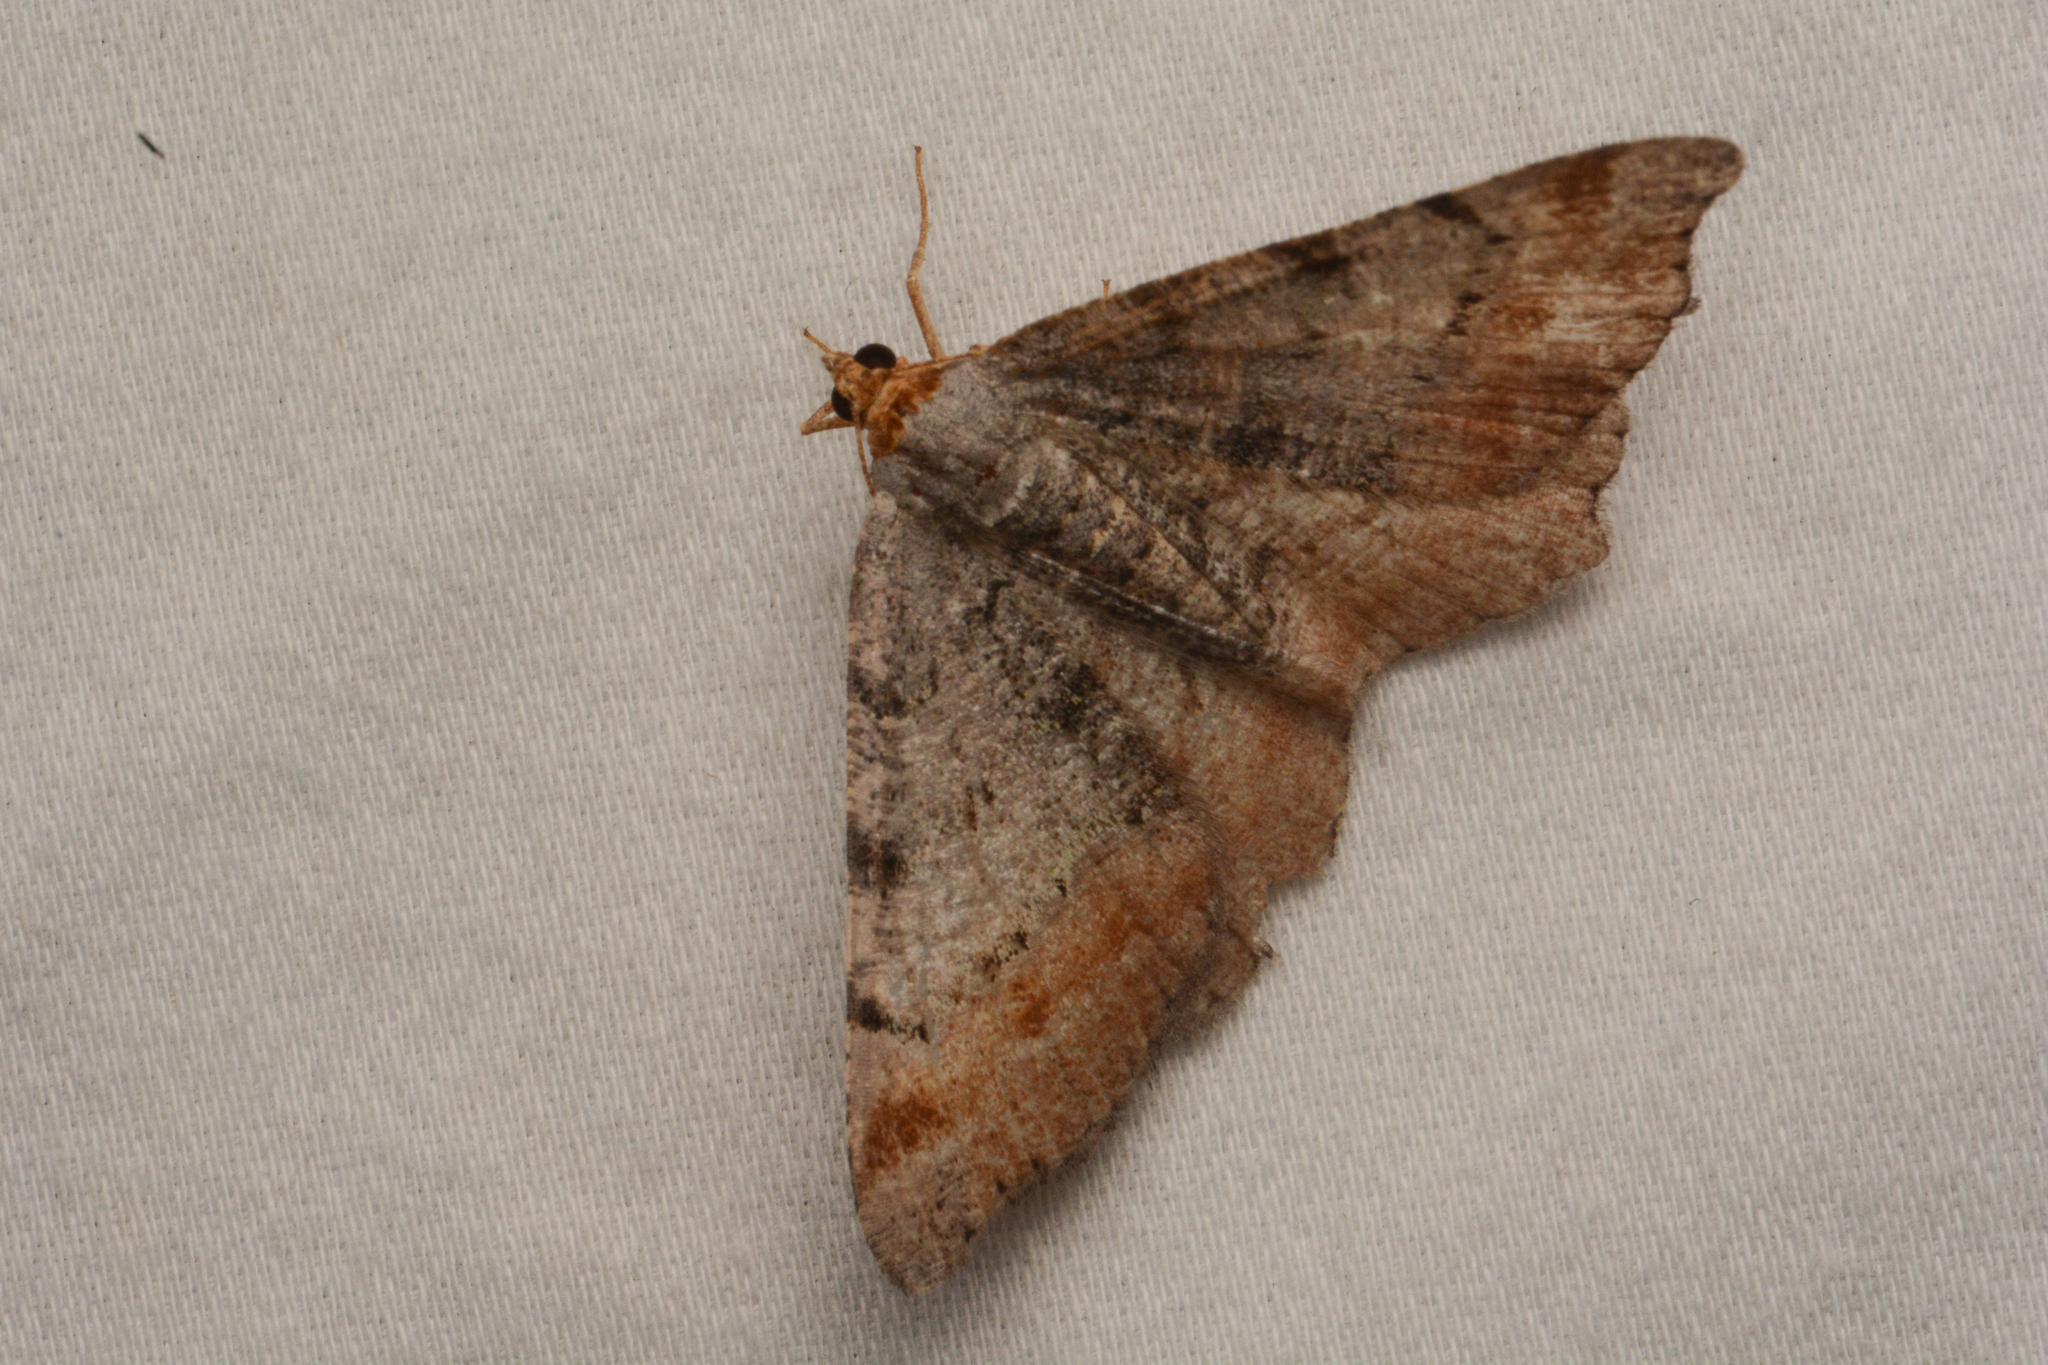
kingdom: Animalia
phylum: Arthropoda
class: Insecta
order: Lepidoptera
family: Geometridae
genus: Macaria
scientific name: Macaria adonis
